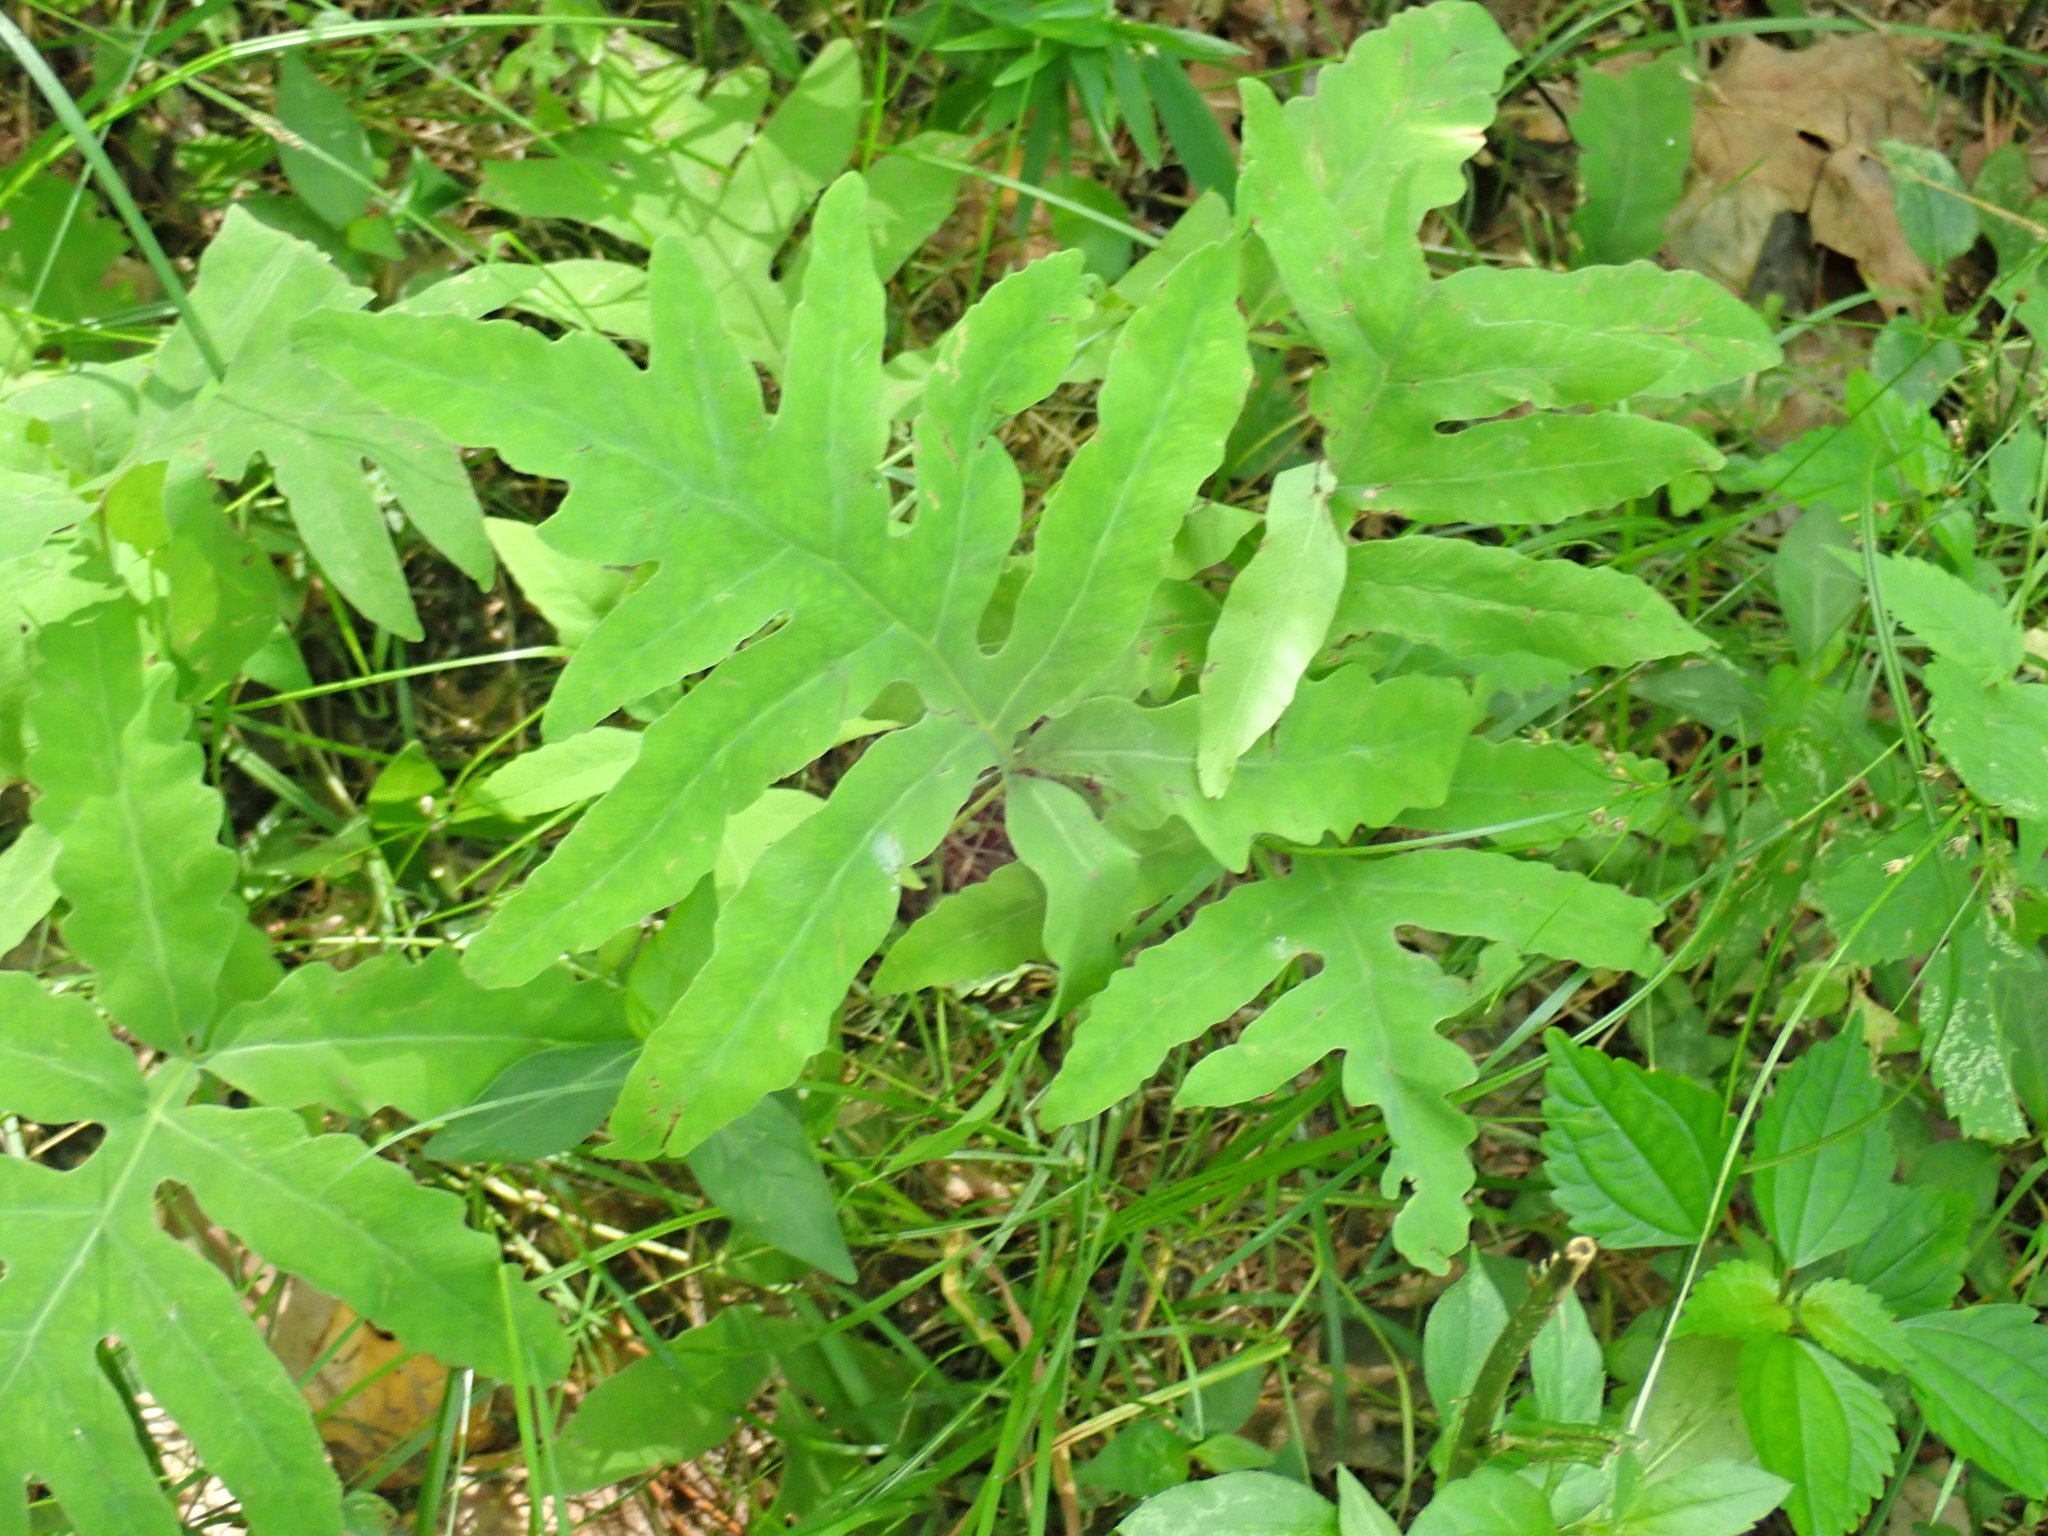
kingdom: Plantae
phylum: Tracheophyta
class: Polypodiopsida
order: Polypodiales
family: Onocleaceae
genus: Onoclea
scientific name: Onoclea sensibilis
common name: Sensitive fern
